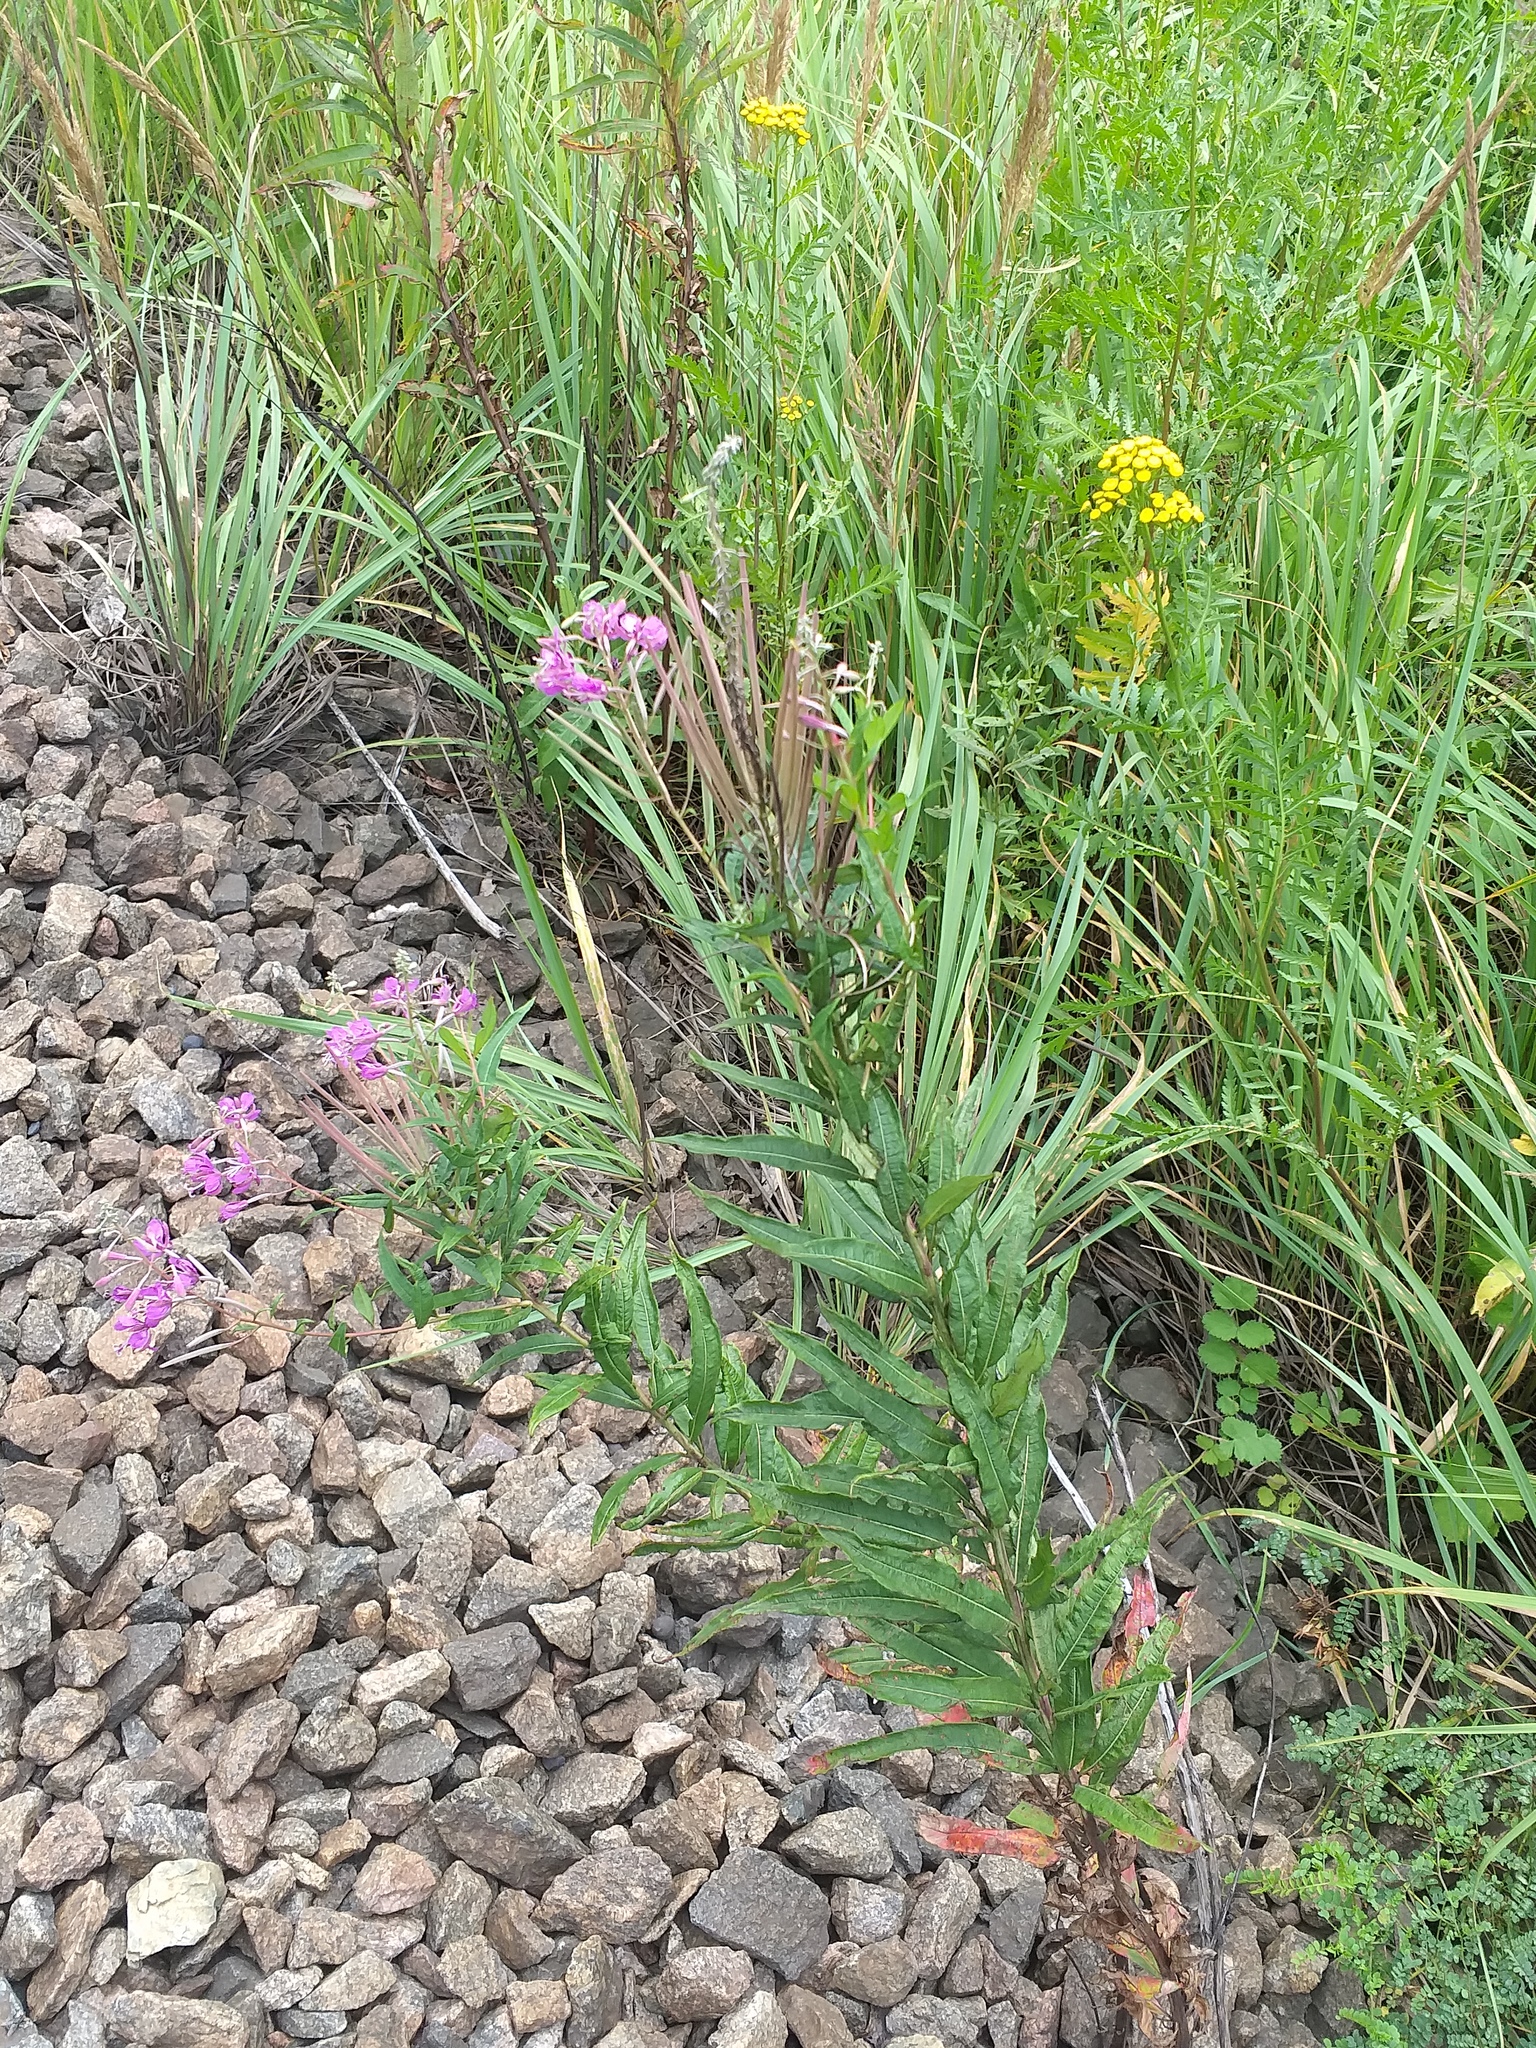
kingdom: Plantae
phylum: Tracheophyta
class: Magnoliopsida
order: Myrtales
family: Onagraceae
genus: Chamaenerion
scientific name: Chamaenerion angustifolium
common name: Fireweed
